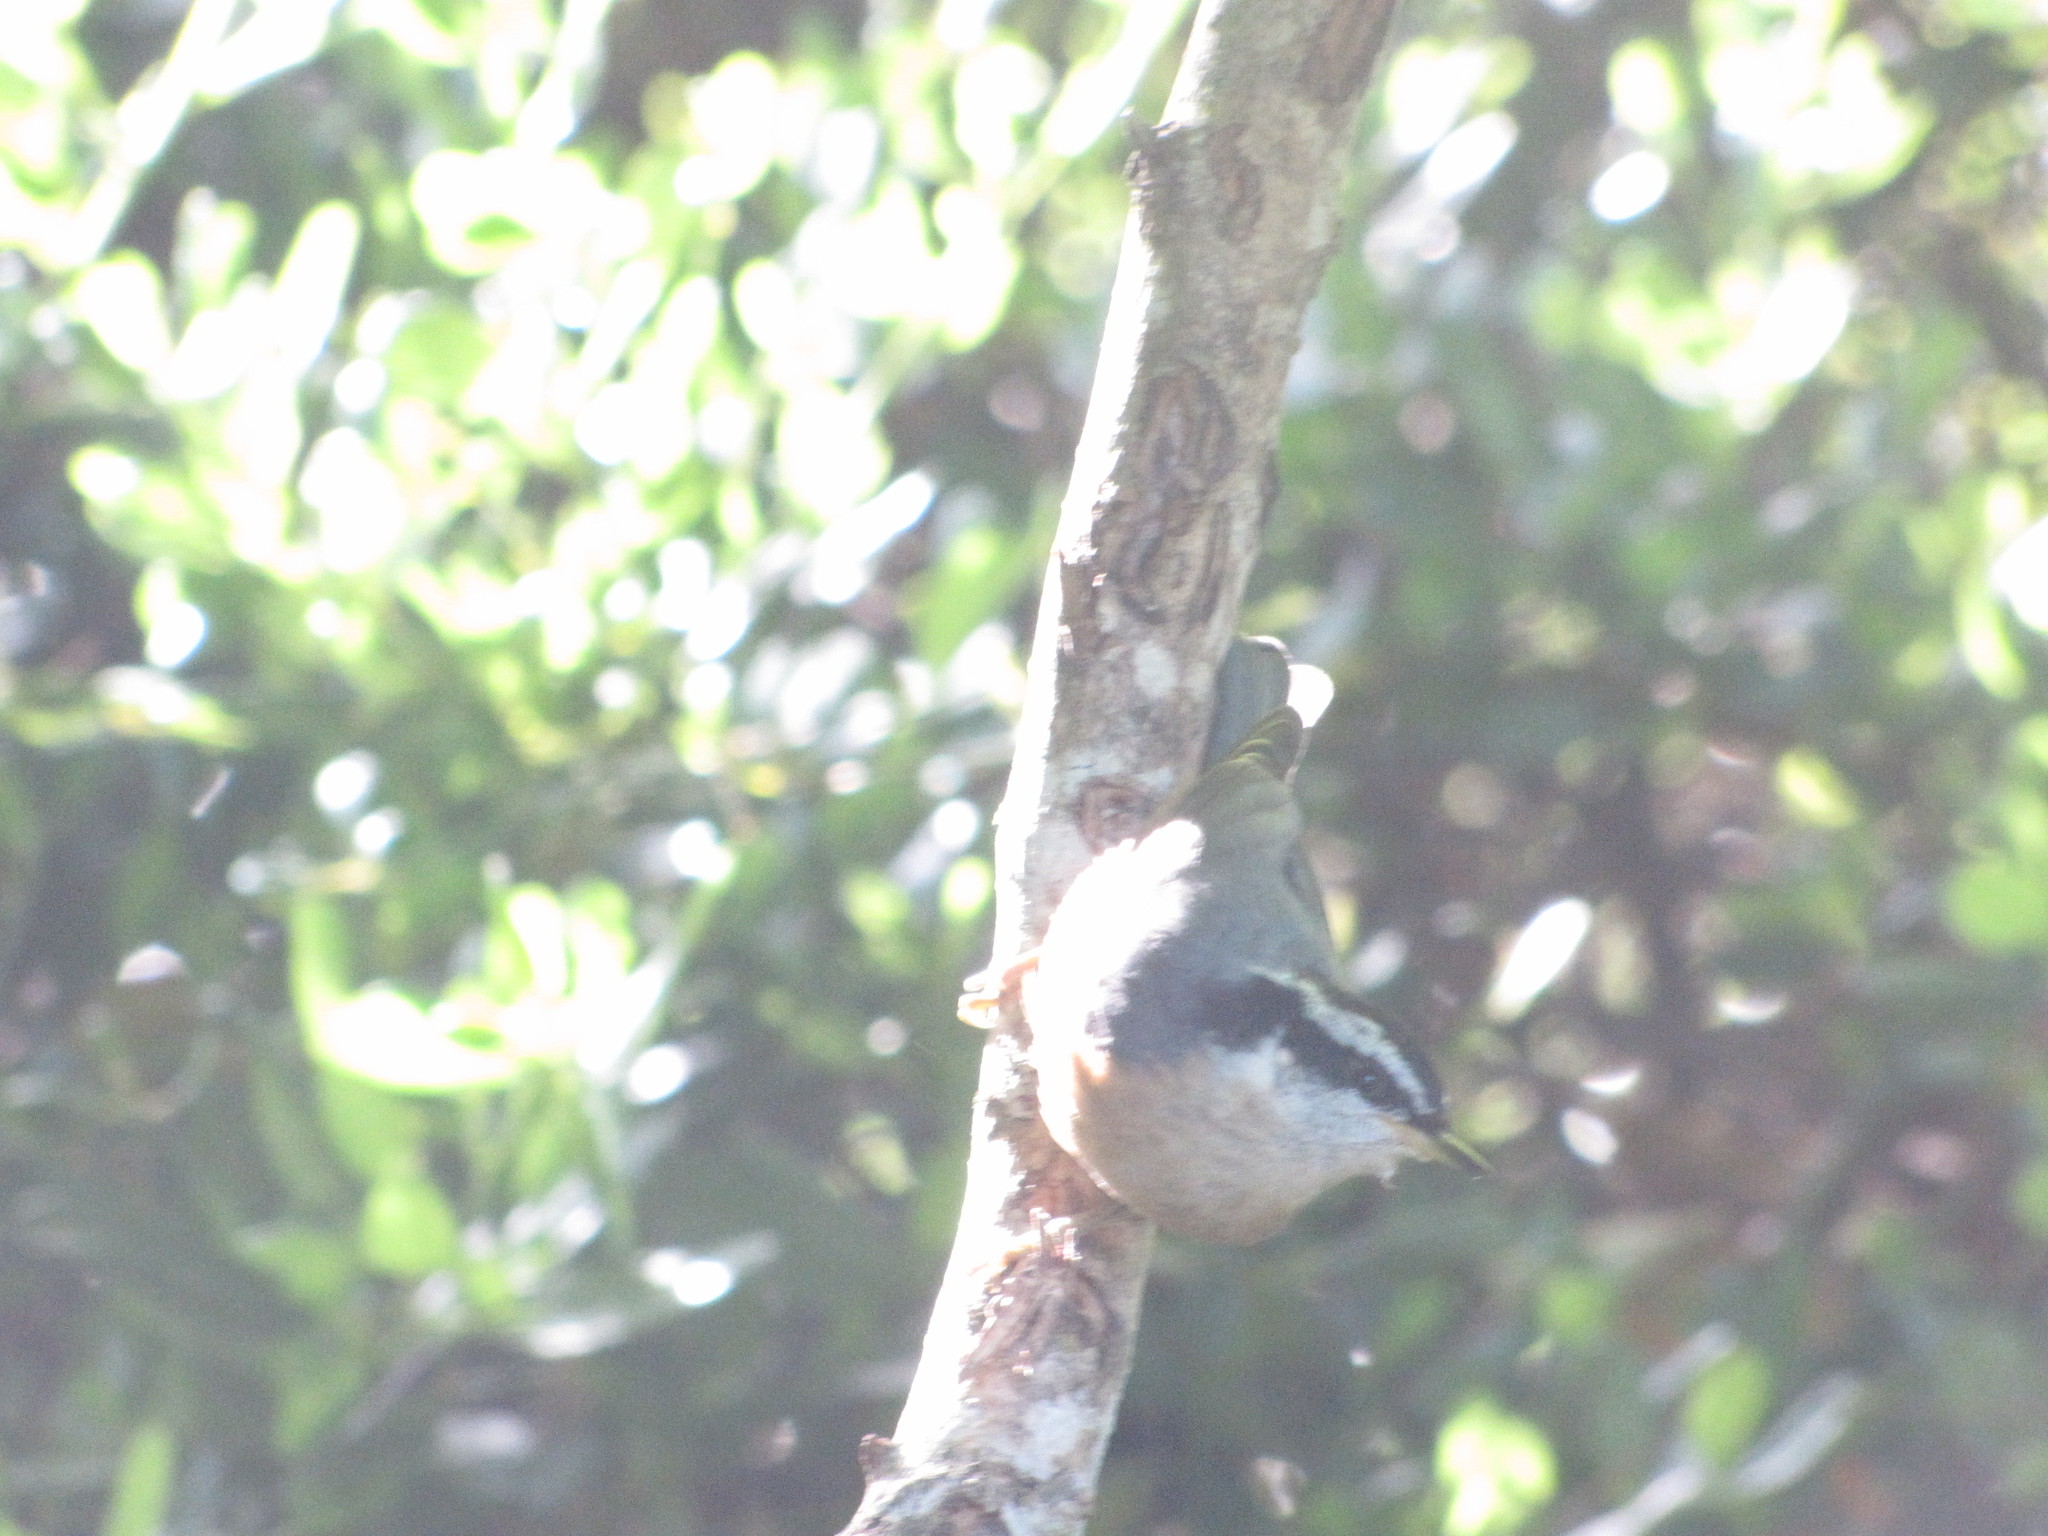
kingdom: Animalia
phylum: Chordata
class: Aves
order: Passeriformes
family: Sittidae
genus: Sitta
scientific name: Sitta canadensis
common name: Red-breasted nuthatch
